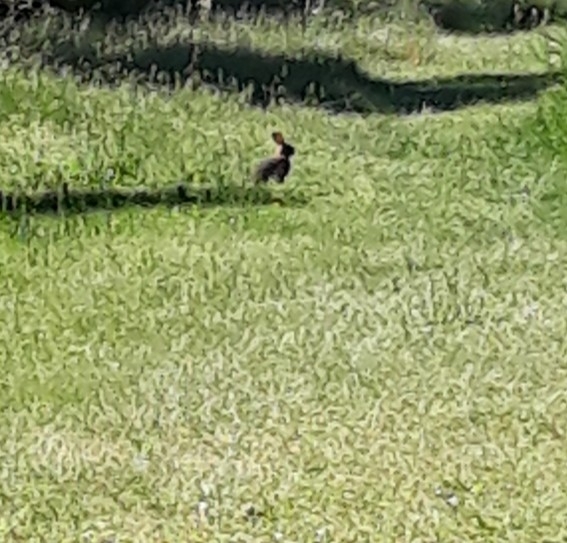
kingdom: Animalia
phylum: Chordata
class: Mammalia
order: Lagomorpha
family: Leporidae
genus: Oryctolagus
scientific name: Oryctolagus cuniculus
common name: European rabbit
